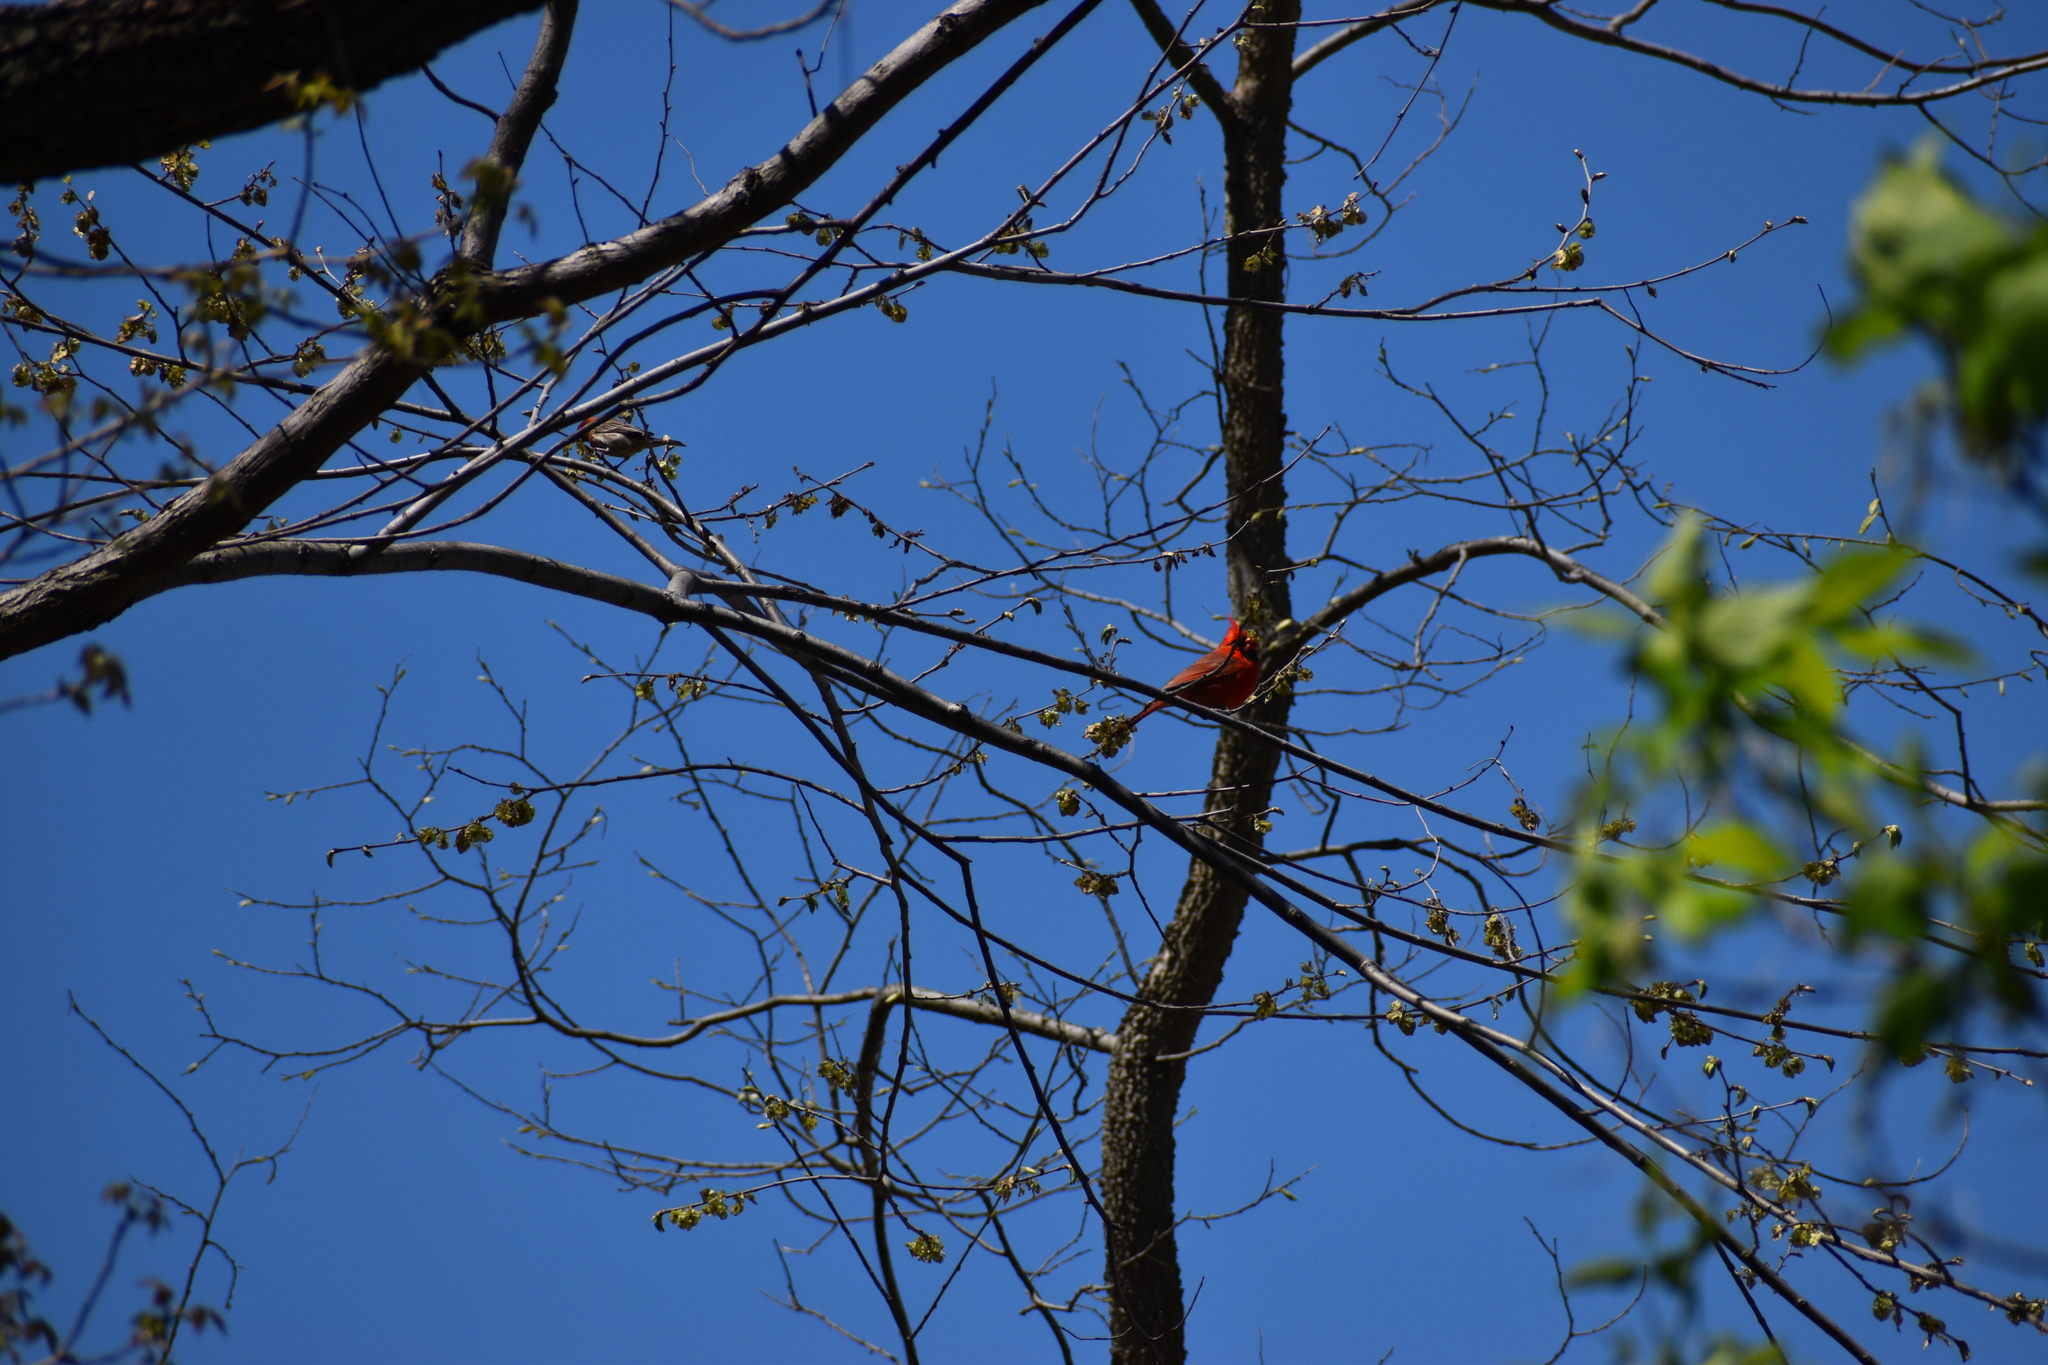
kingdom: Animalia
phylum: Chordata
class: Aves
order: Passeriformes
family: Cardinalidae
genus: Cardinalis
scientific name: Cardinalis cardinalis
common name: Northern cardinal
